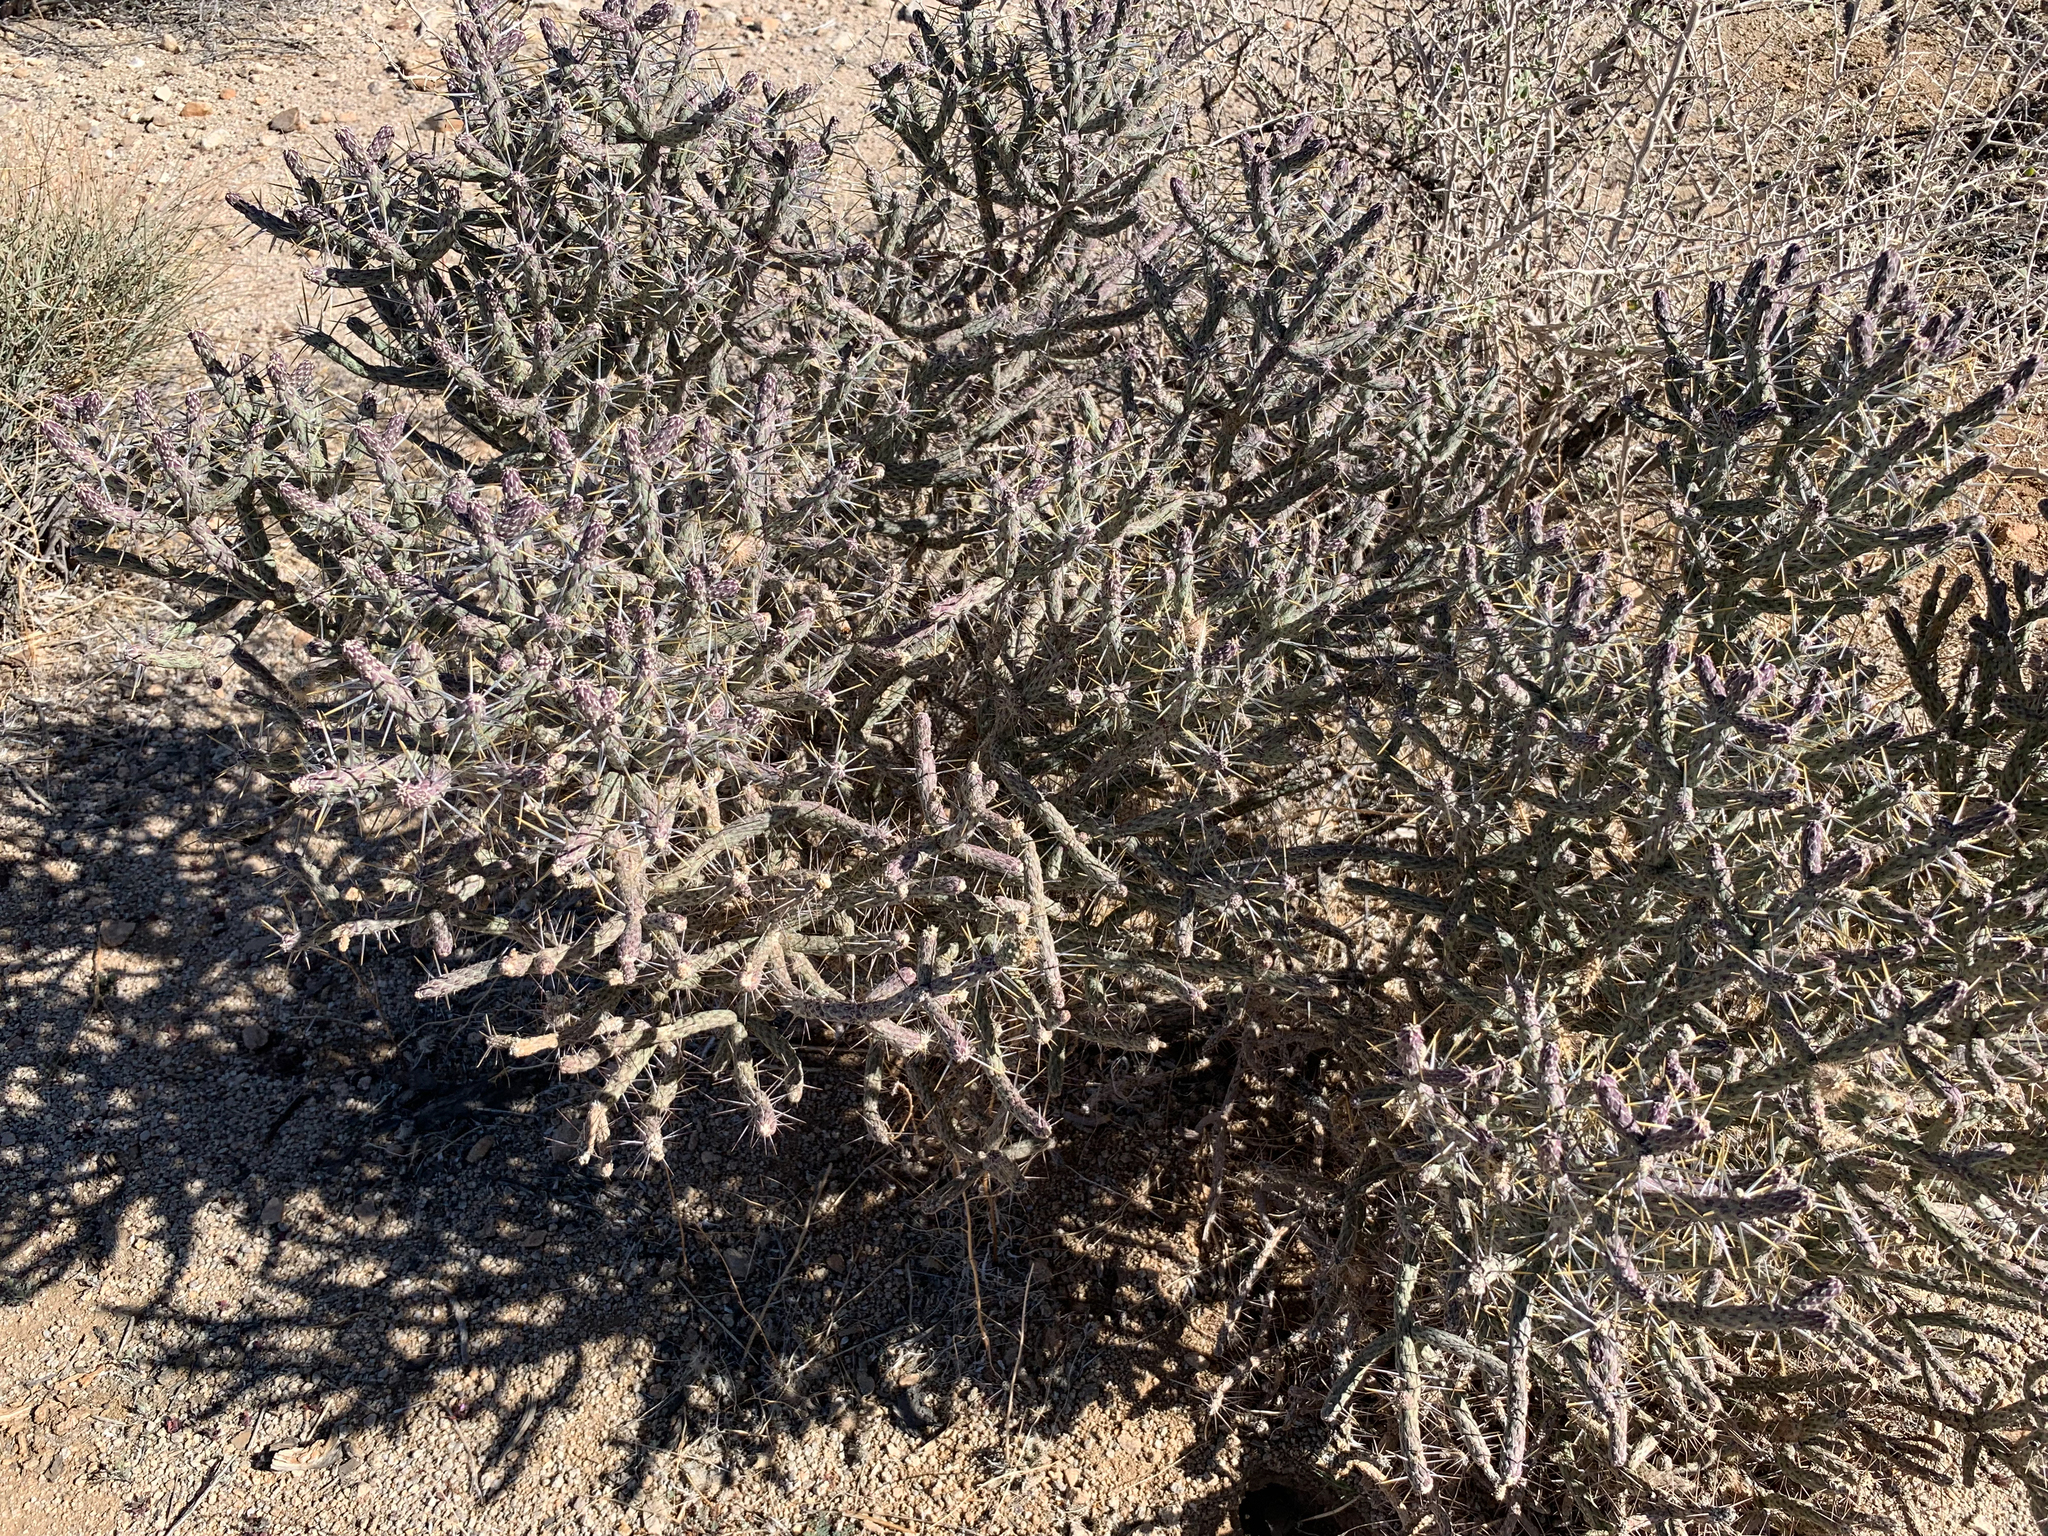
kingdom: Plantae
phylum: Tracheophyta
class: Magnoliopsida
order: Caryophyllales
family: Cactaceae
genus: Cylindropuntia
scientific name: Cylindropuntia ramosissima
